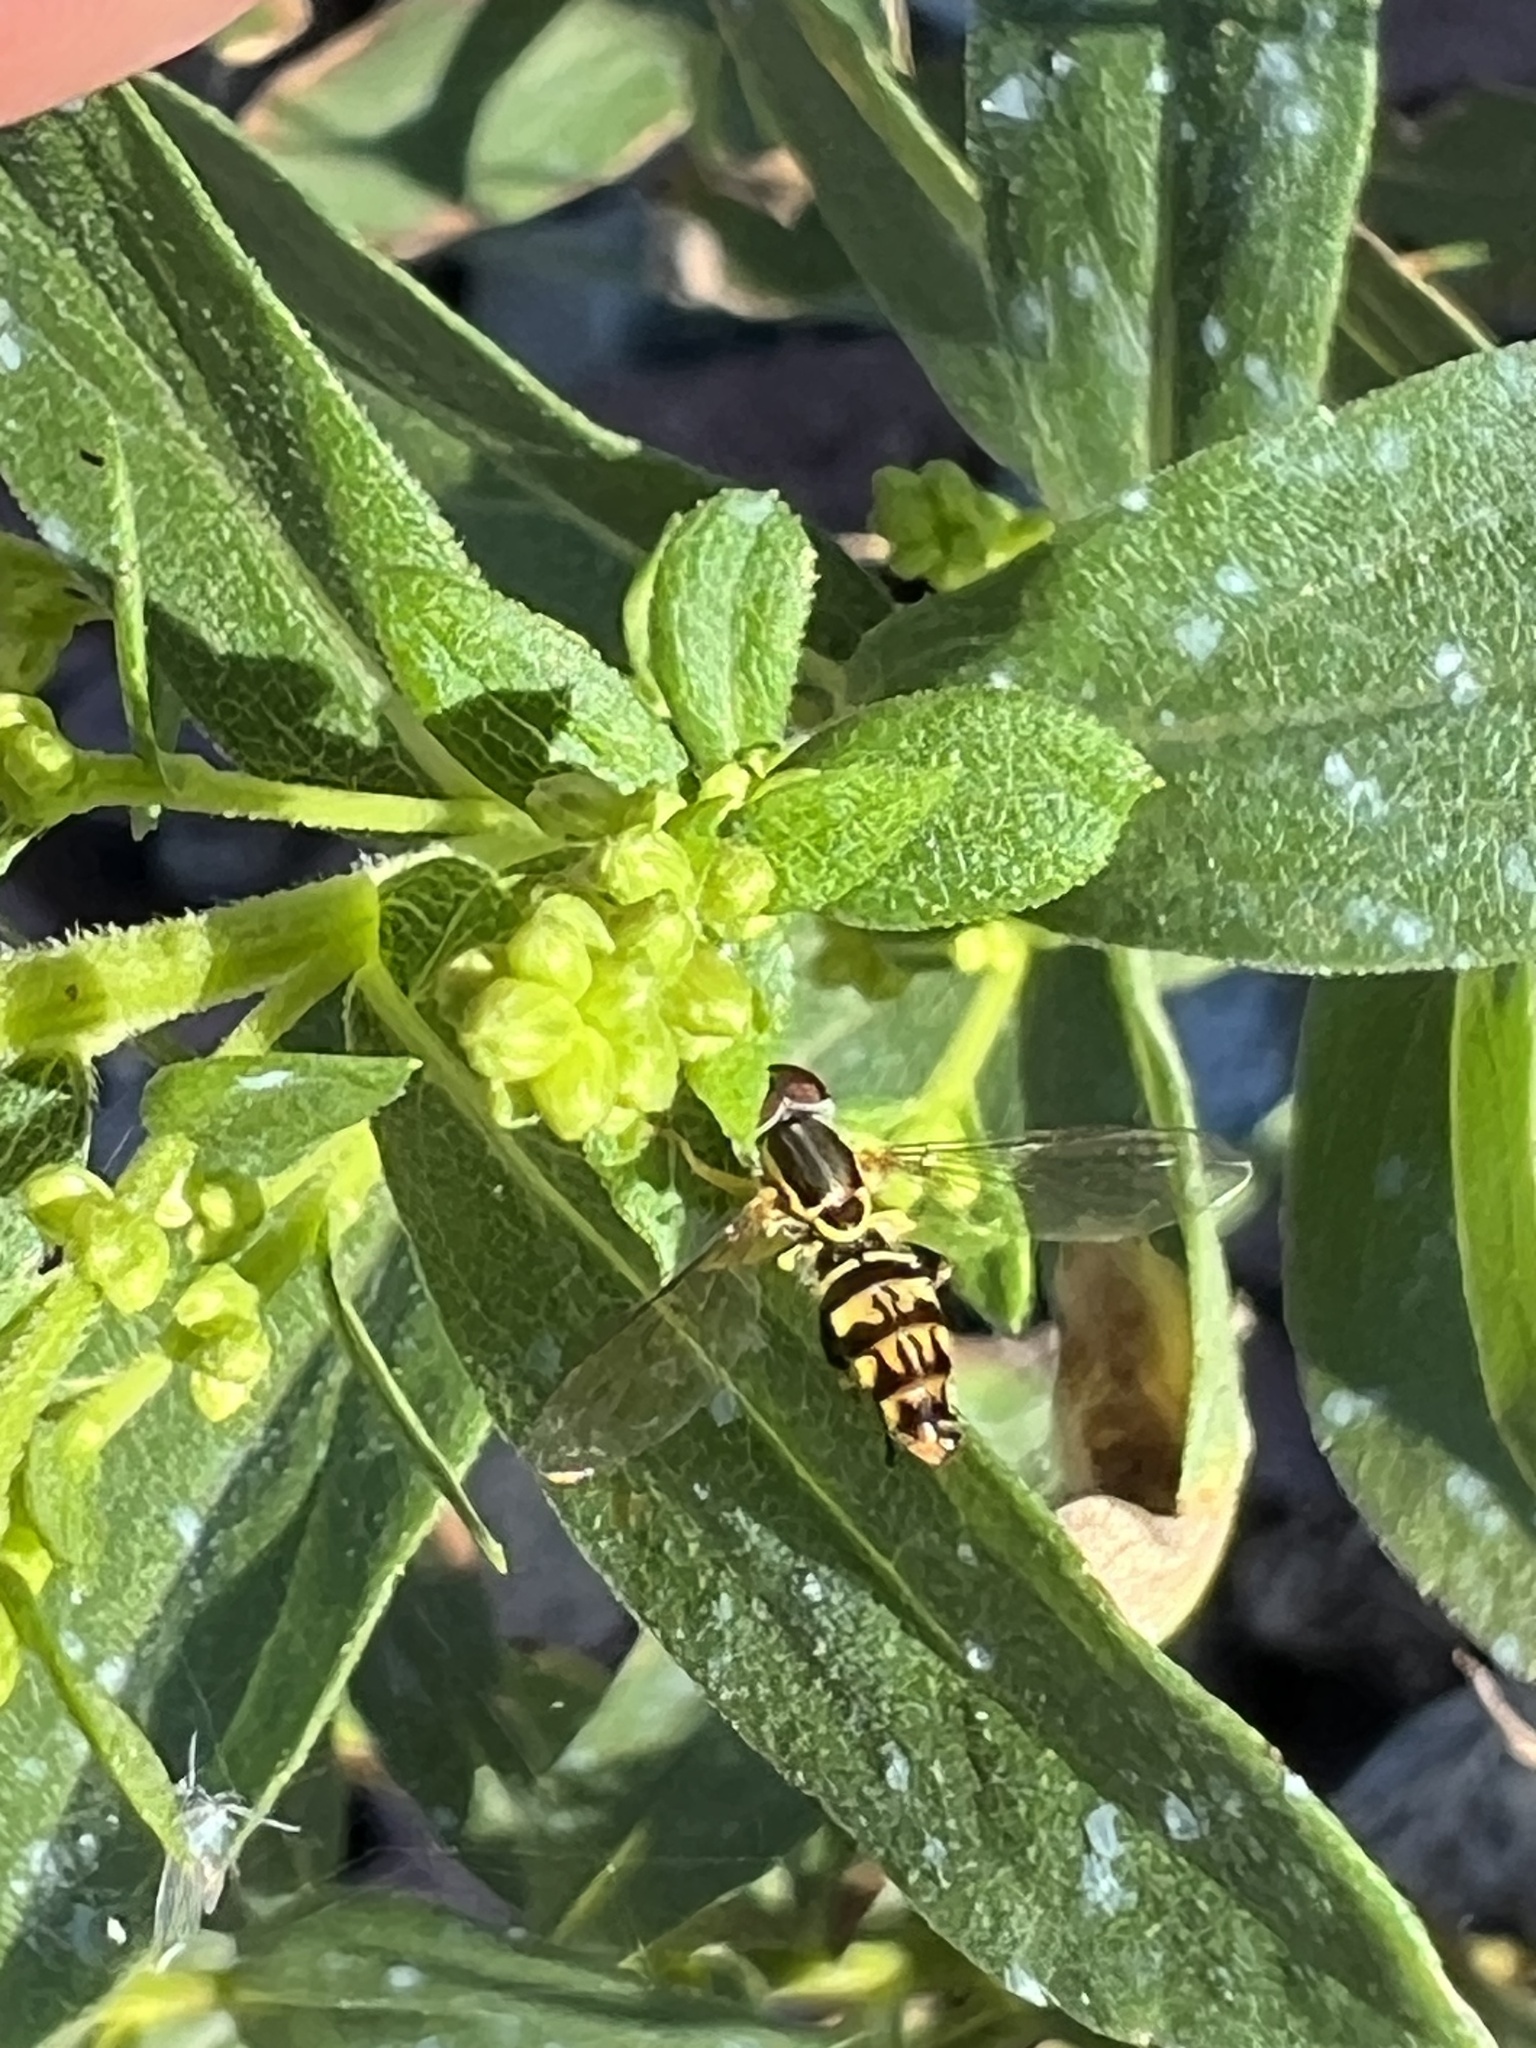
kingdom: Animalia
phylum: Arthropoda
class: Insecta
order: Diptera
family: Syrphidae
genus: Toxomerus
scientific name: Toxomerus geminatus
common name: Eastern calligrapher
